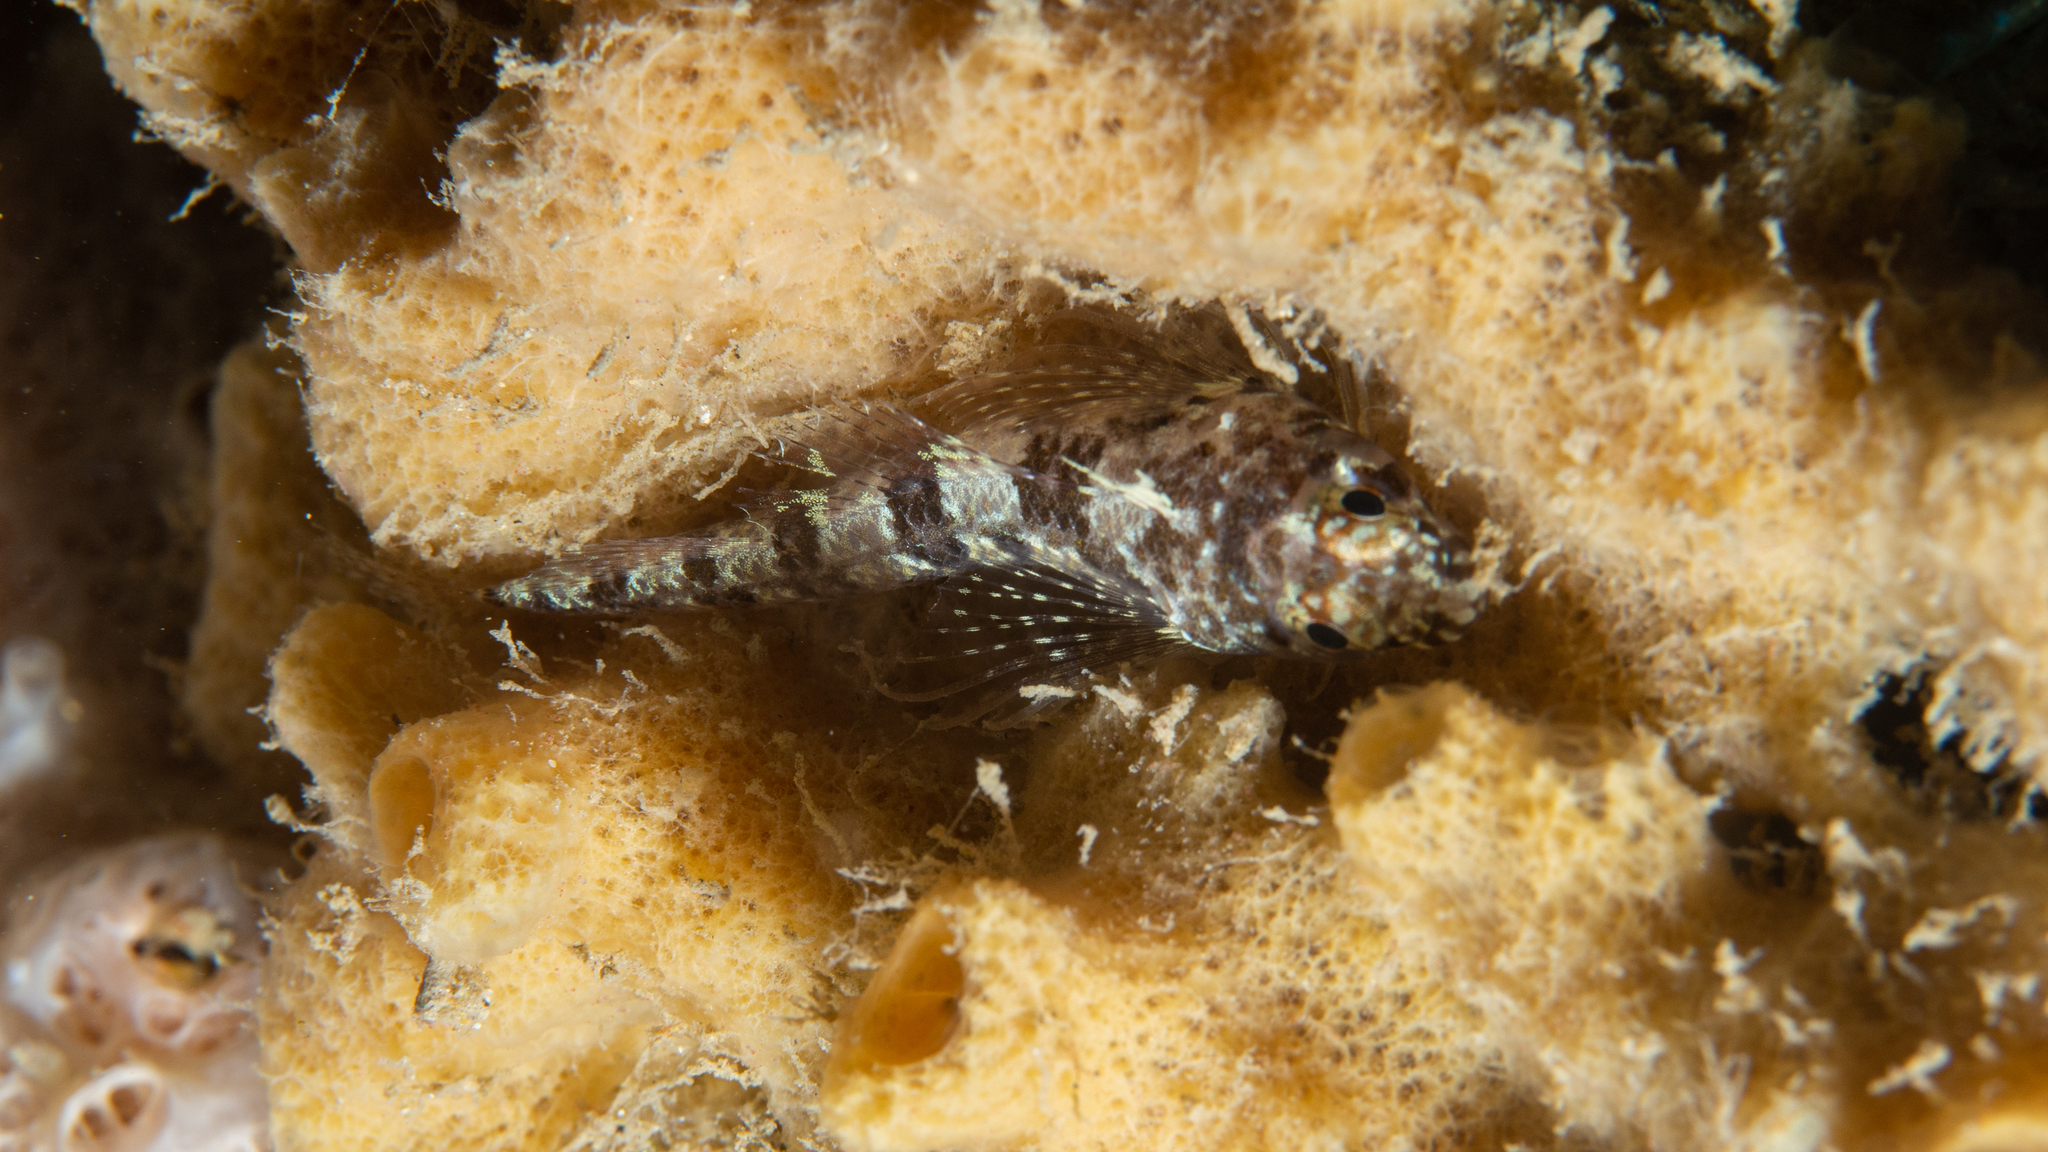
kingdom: Animalia
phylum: Chordata
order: Perciformes
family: Tripterygiidae
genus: Lepidoblennius
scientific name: Lepidoblennius marmoratus
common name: Western jumping blenny
